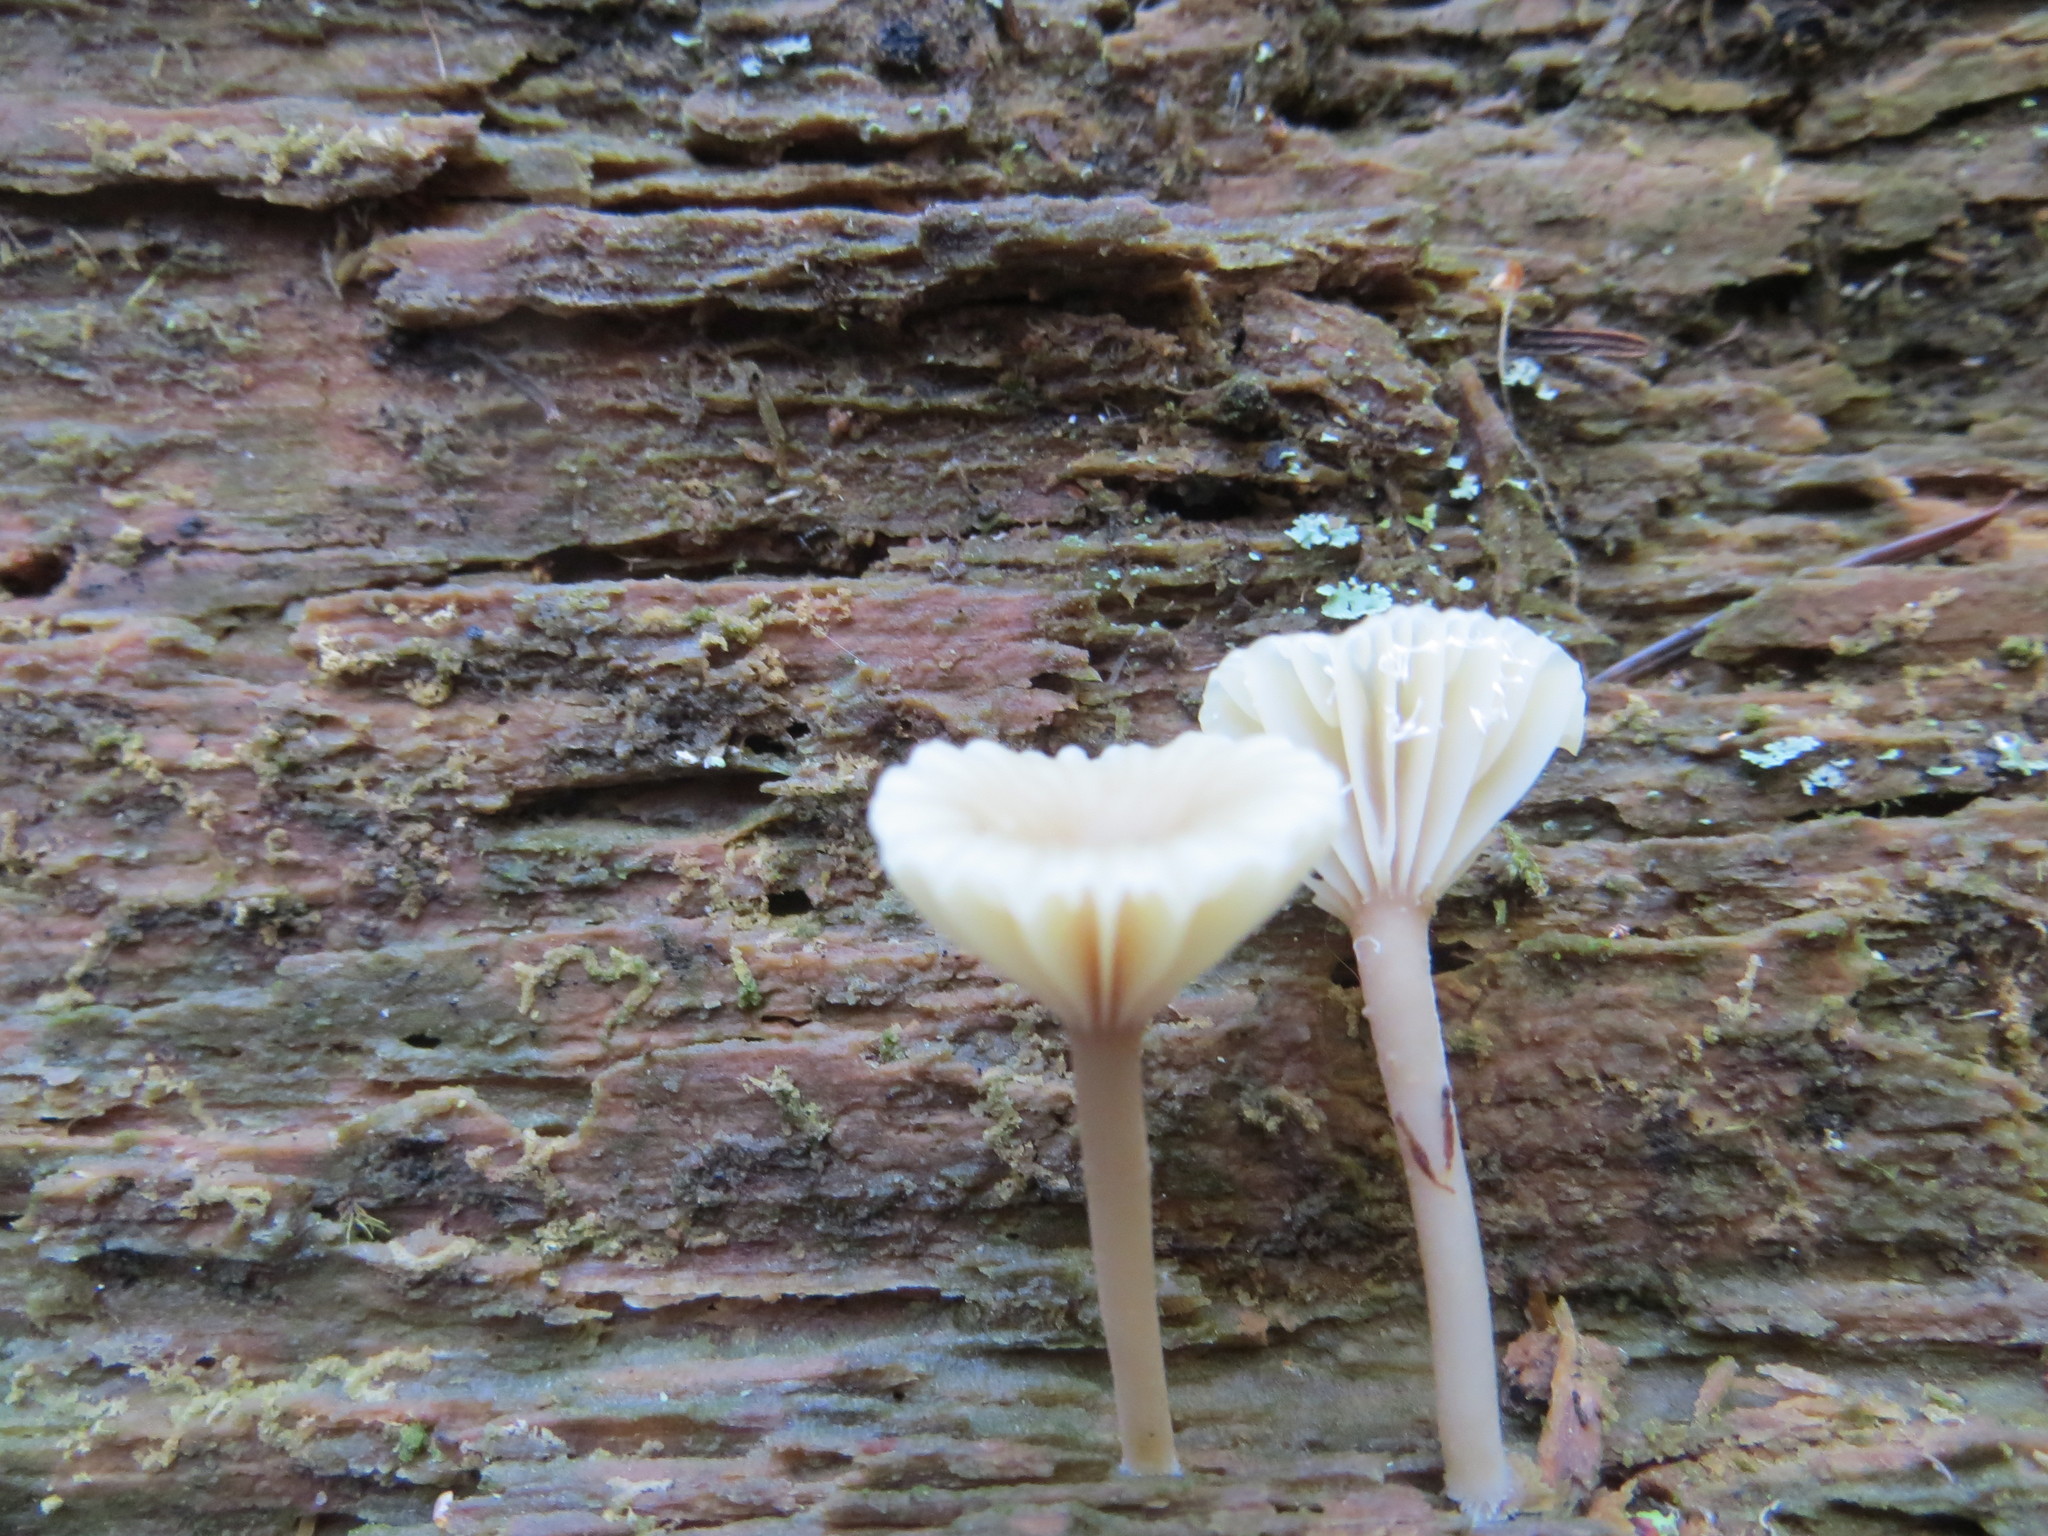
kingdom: Fungi
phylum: Basidiomycota
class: Agaricomycetes
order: Agaricales
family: Hygrophoraceae
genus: Lichenomphalia
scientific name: Lichenomphalia
